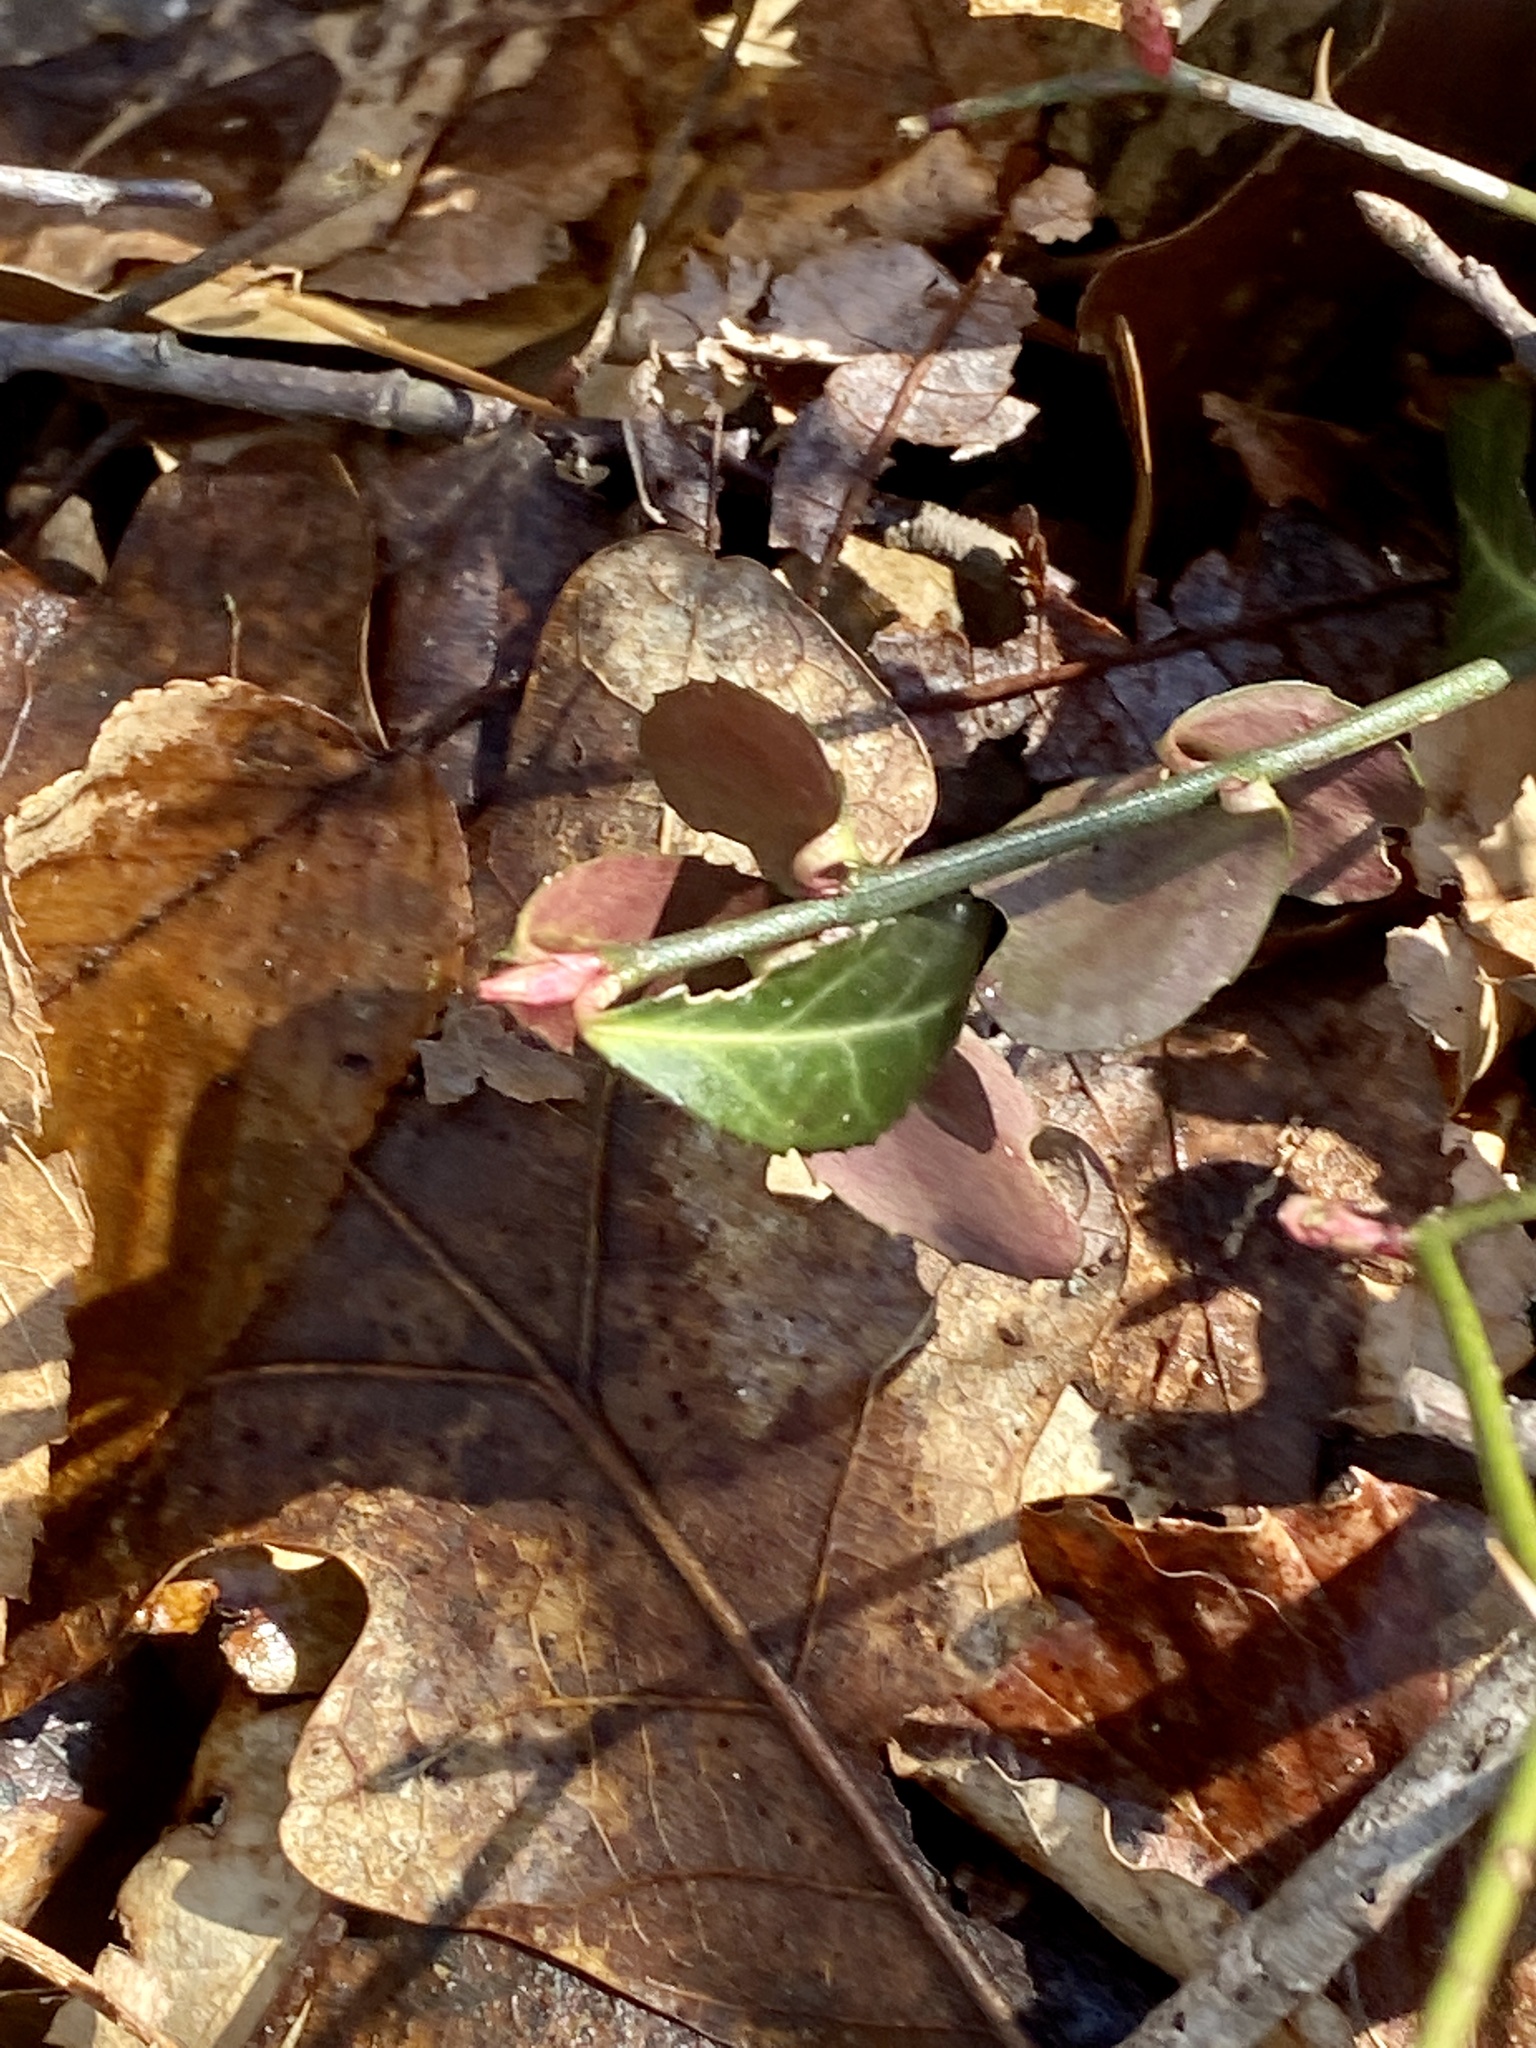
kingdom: Plantae
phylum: Tracheophyta
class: Magnoliopsida
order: Celastrales
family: Celastraceae
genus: Euonymus
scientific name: Euonymus fortunei
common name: Climbing euonymus
